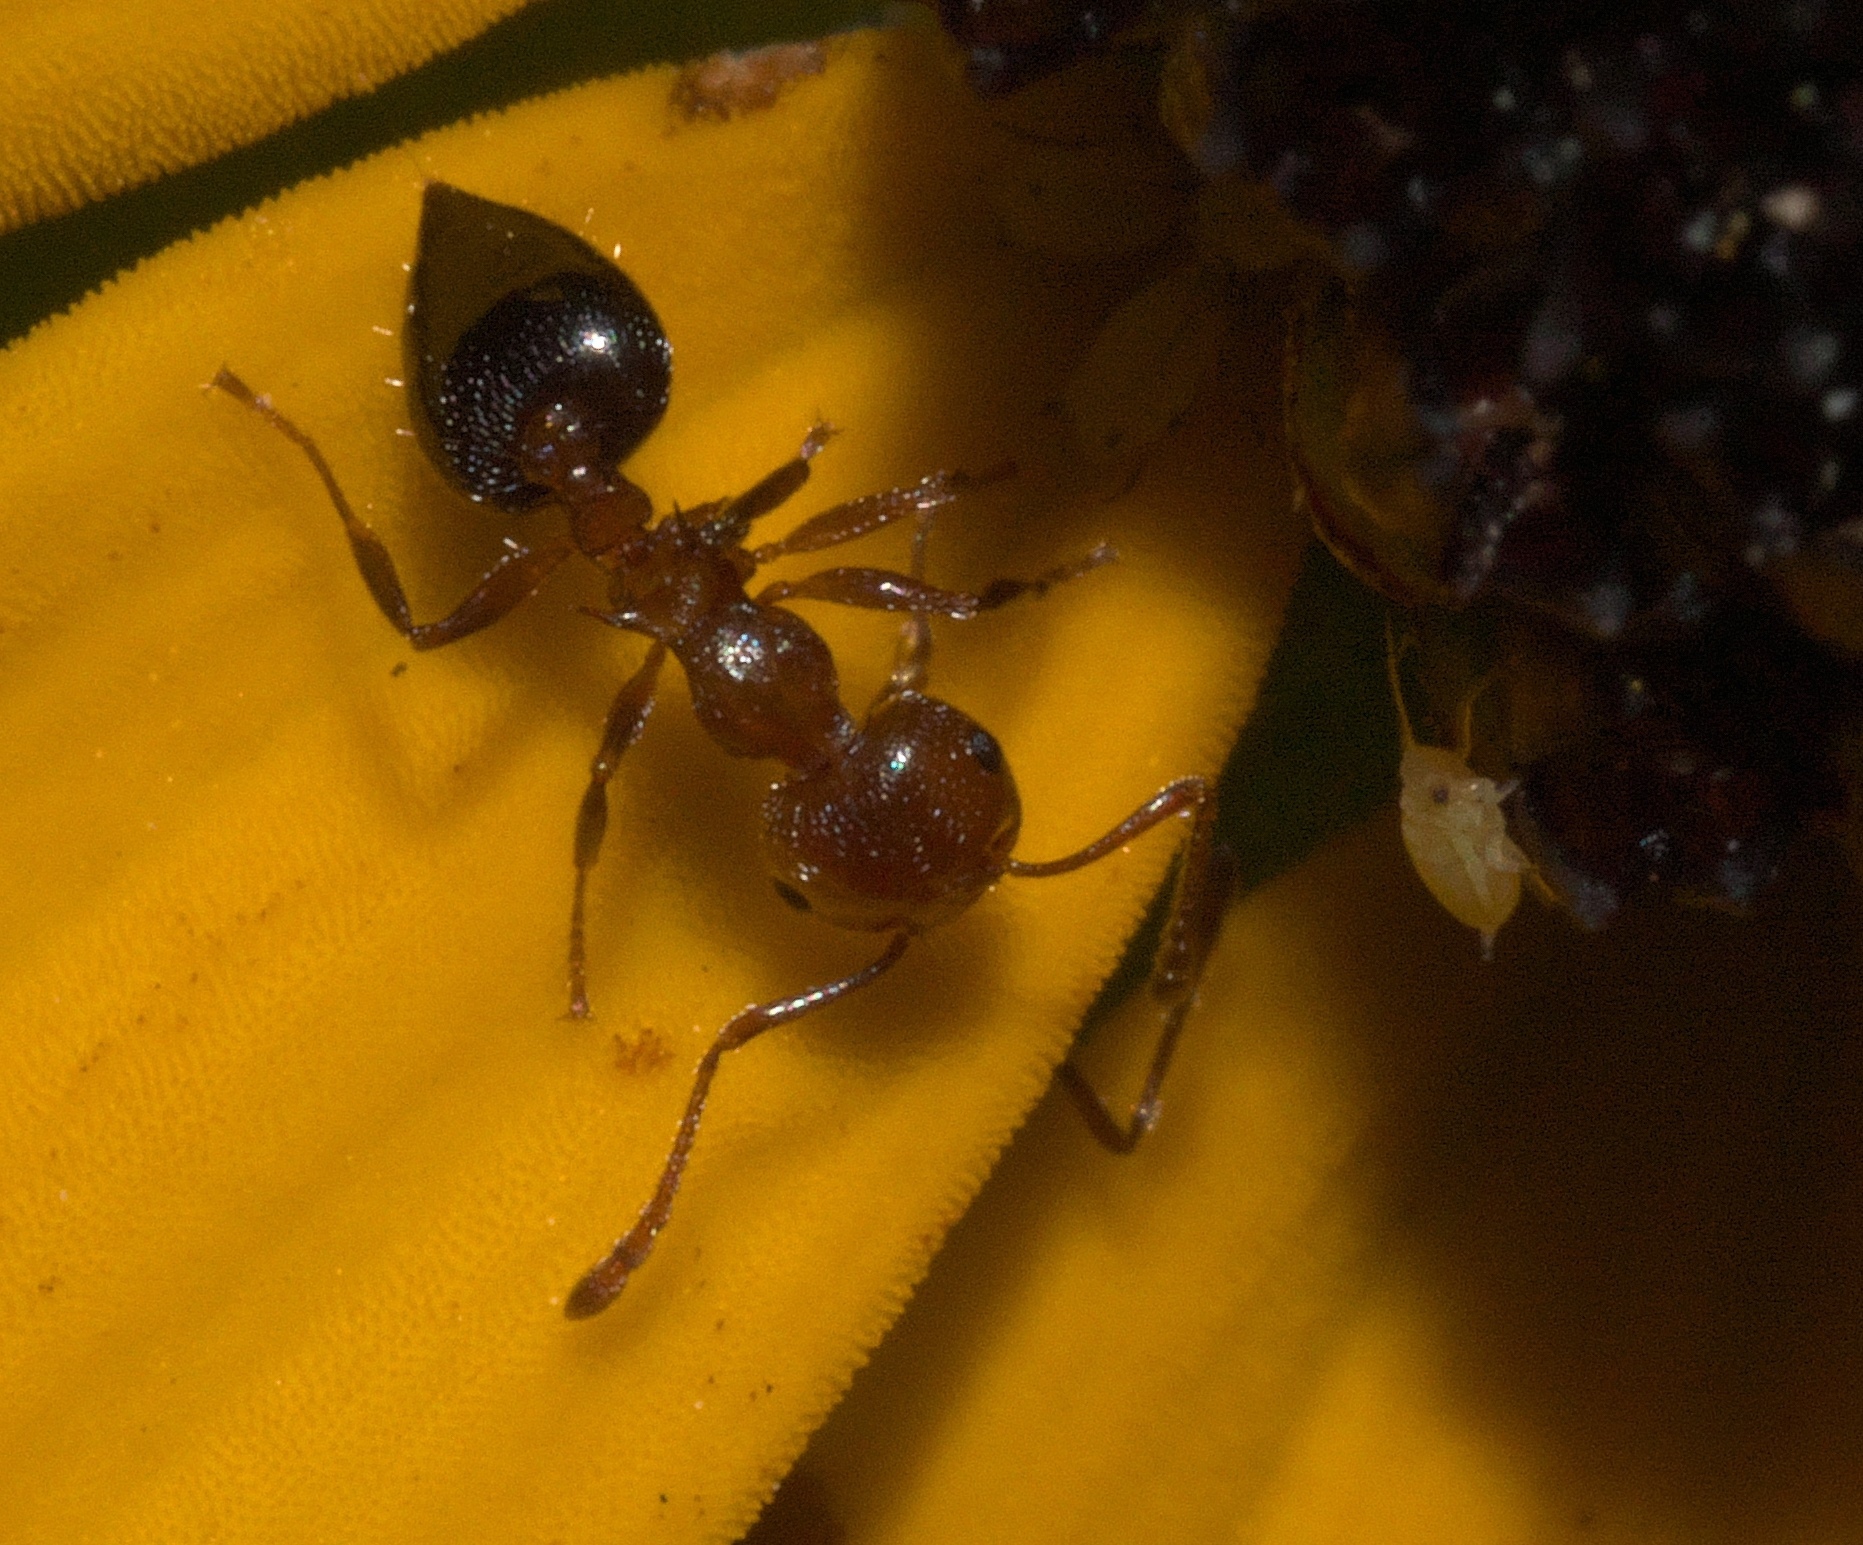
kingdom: Animalia
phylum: Arthropoda
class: Insecta
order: Hymenoptera
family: Formicidae
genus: Crematogaster
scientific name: Crematogaster laeviuscula
